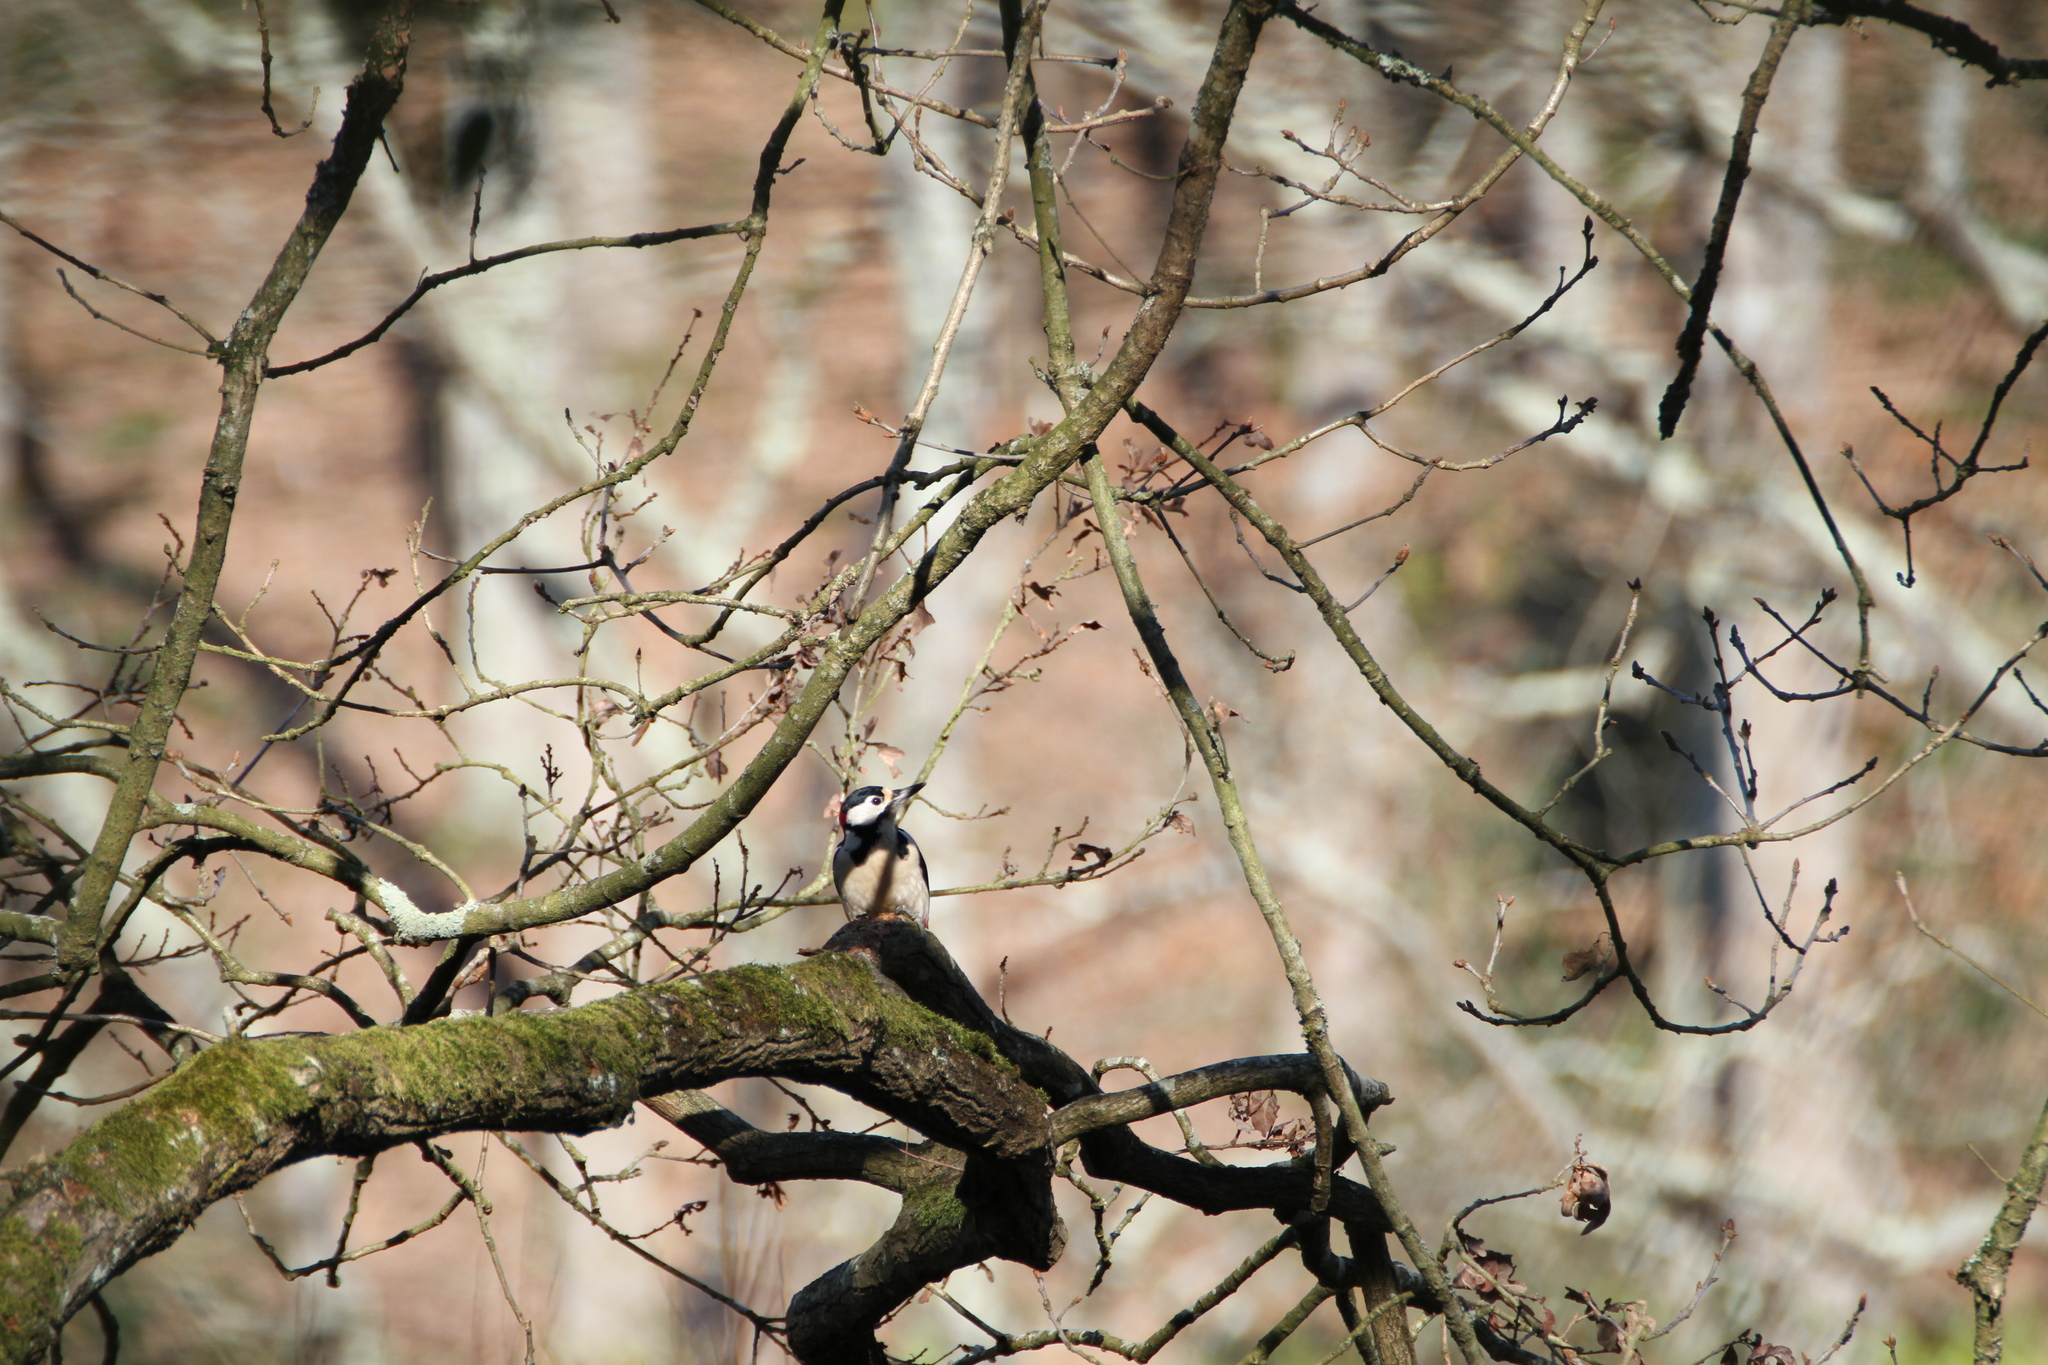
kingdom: Animalia
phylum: Chordata
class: Aves
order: Piciformes
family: Picidae
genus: Dendrocopos
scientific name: Dendrocopos major
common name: Great spotted woodpecker
